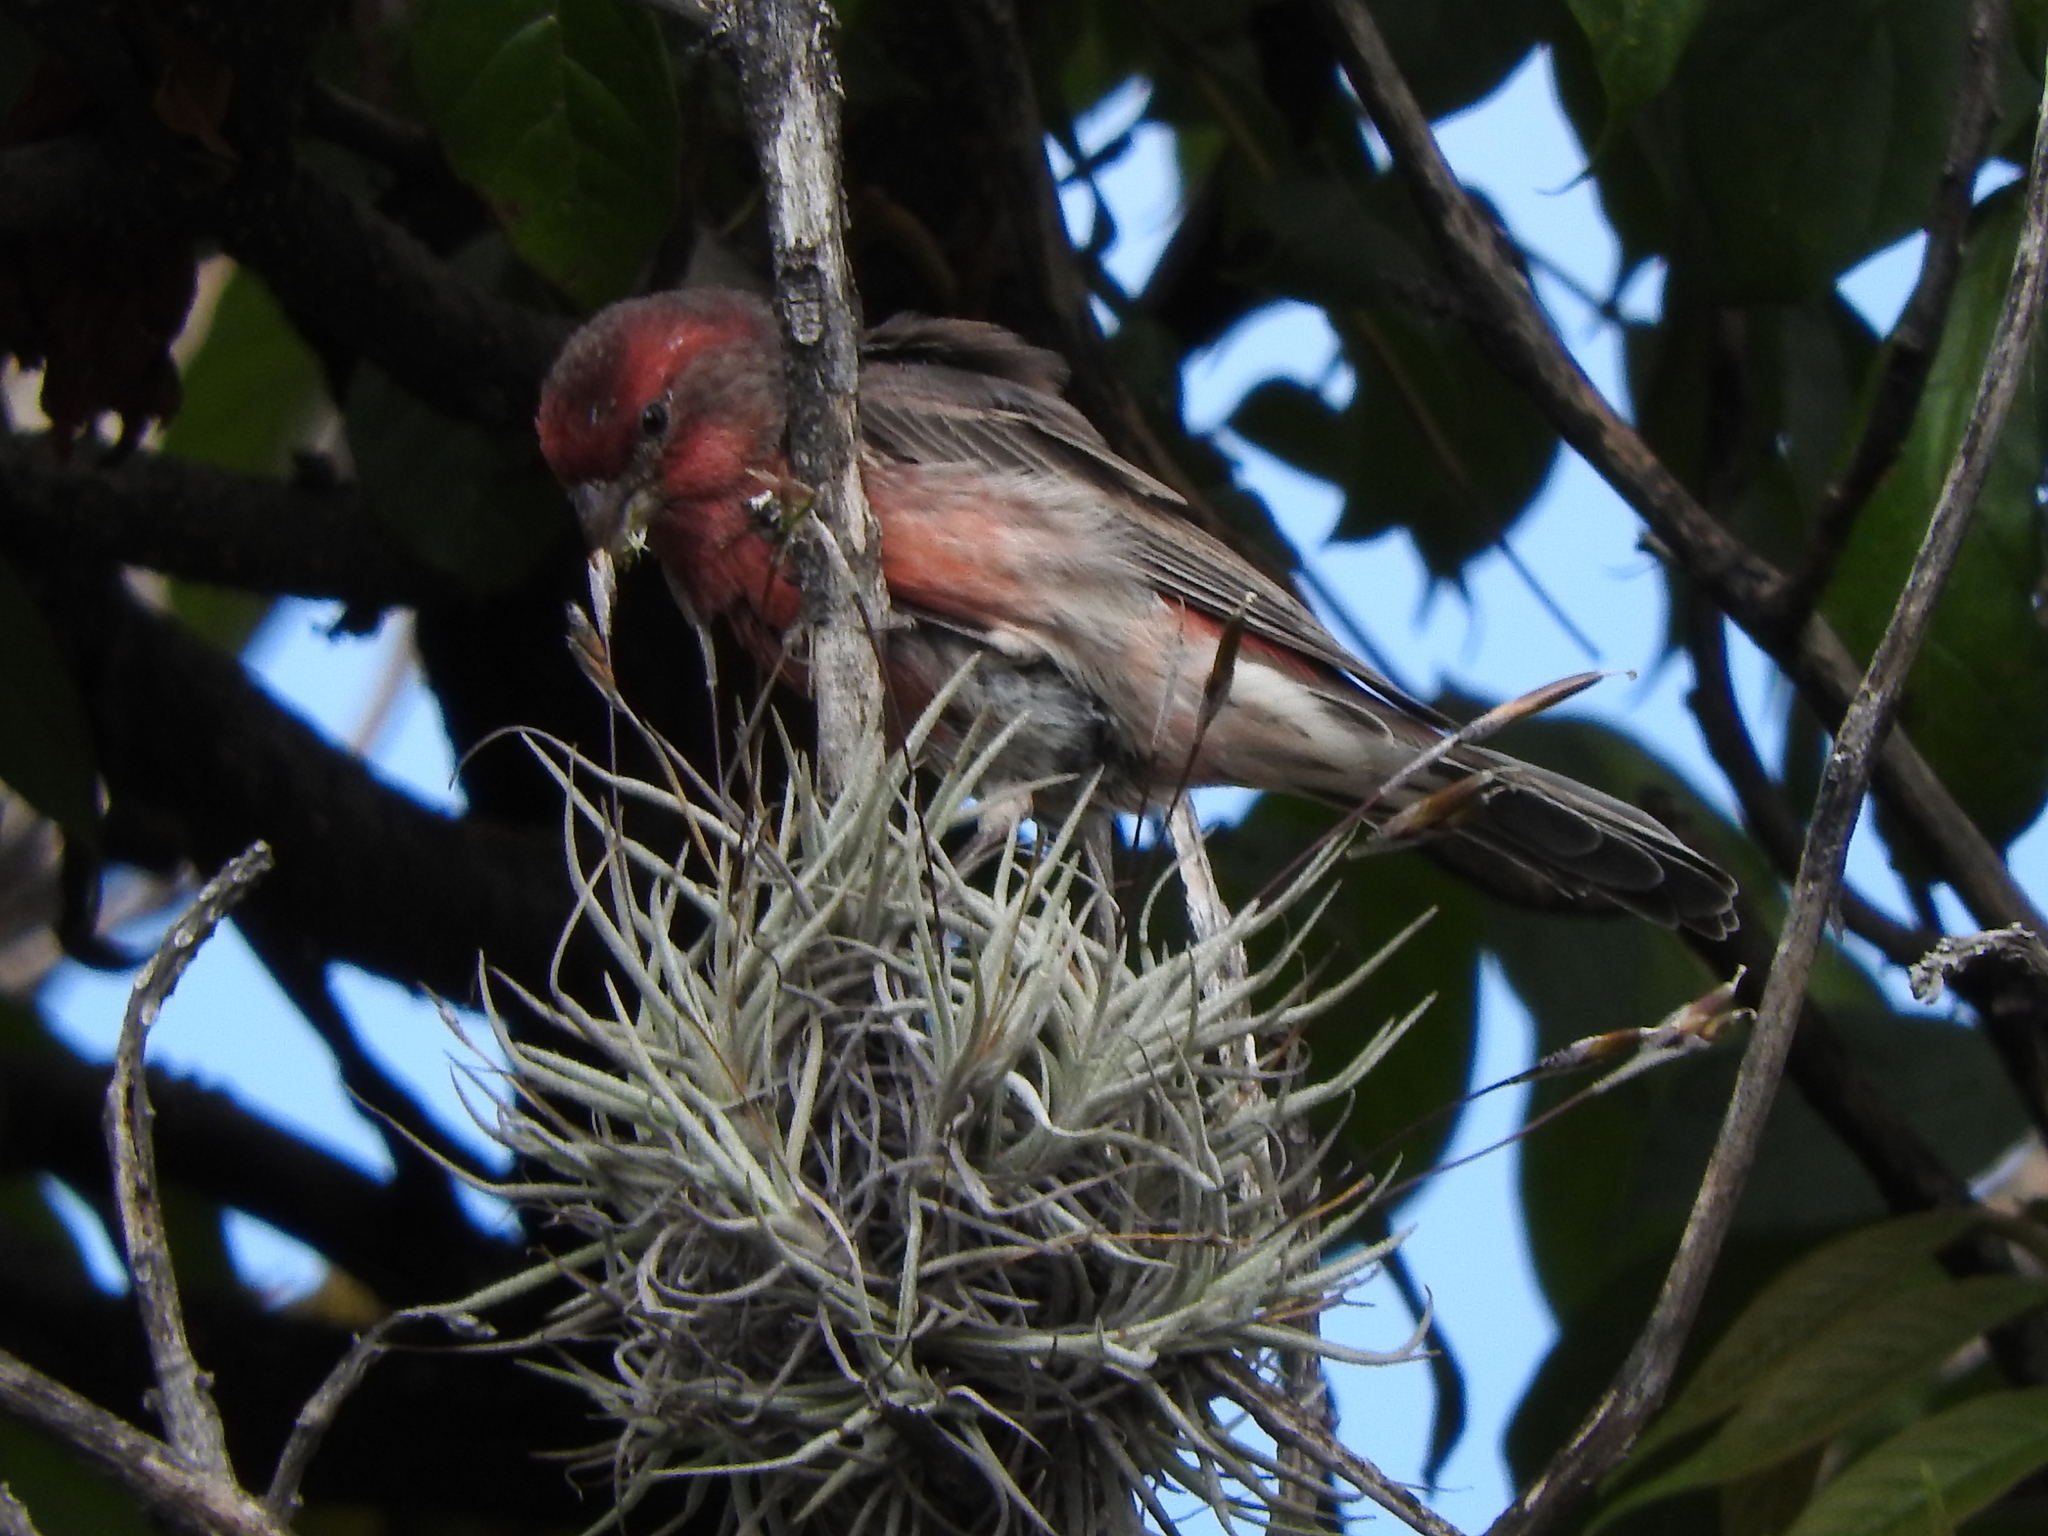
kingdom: Animalia
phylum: Chordata
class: Aves
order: Passeriformes
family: Fringillidae
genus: Haemorhous
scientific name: Haemorhous mexicanus
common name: House finch
